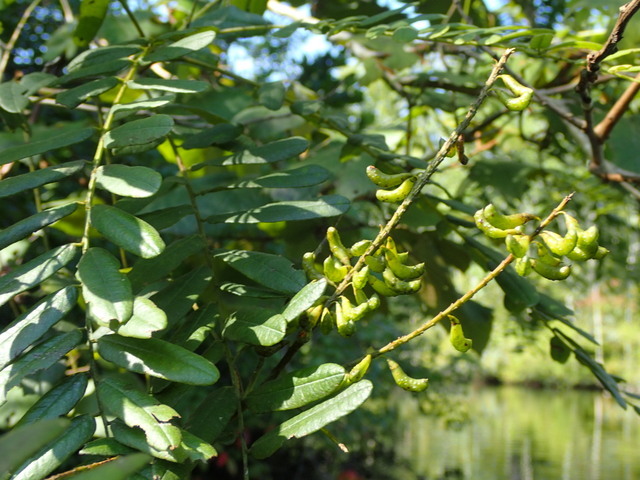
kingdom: Plantae
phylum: Tracheophyta
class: Magnoliopsida
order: Fabales
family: Fabaceae
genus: Amorpha
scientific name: Amorpha fruticosa
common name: False indigo
